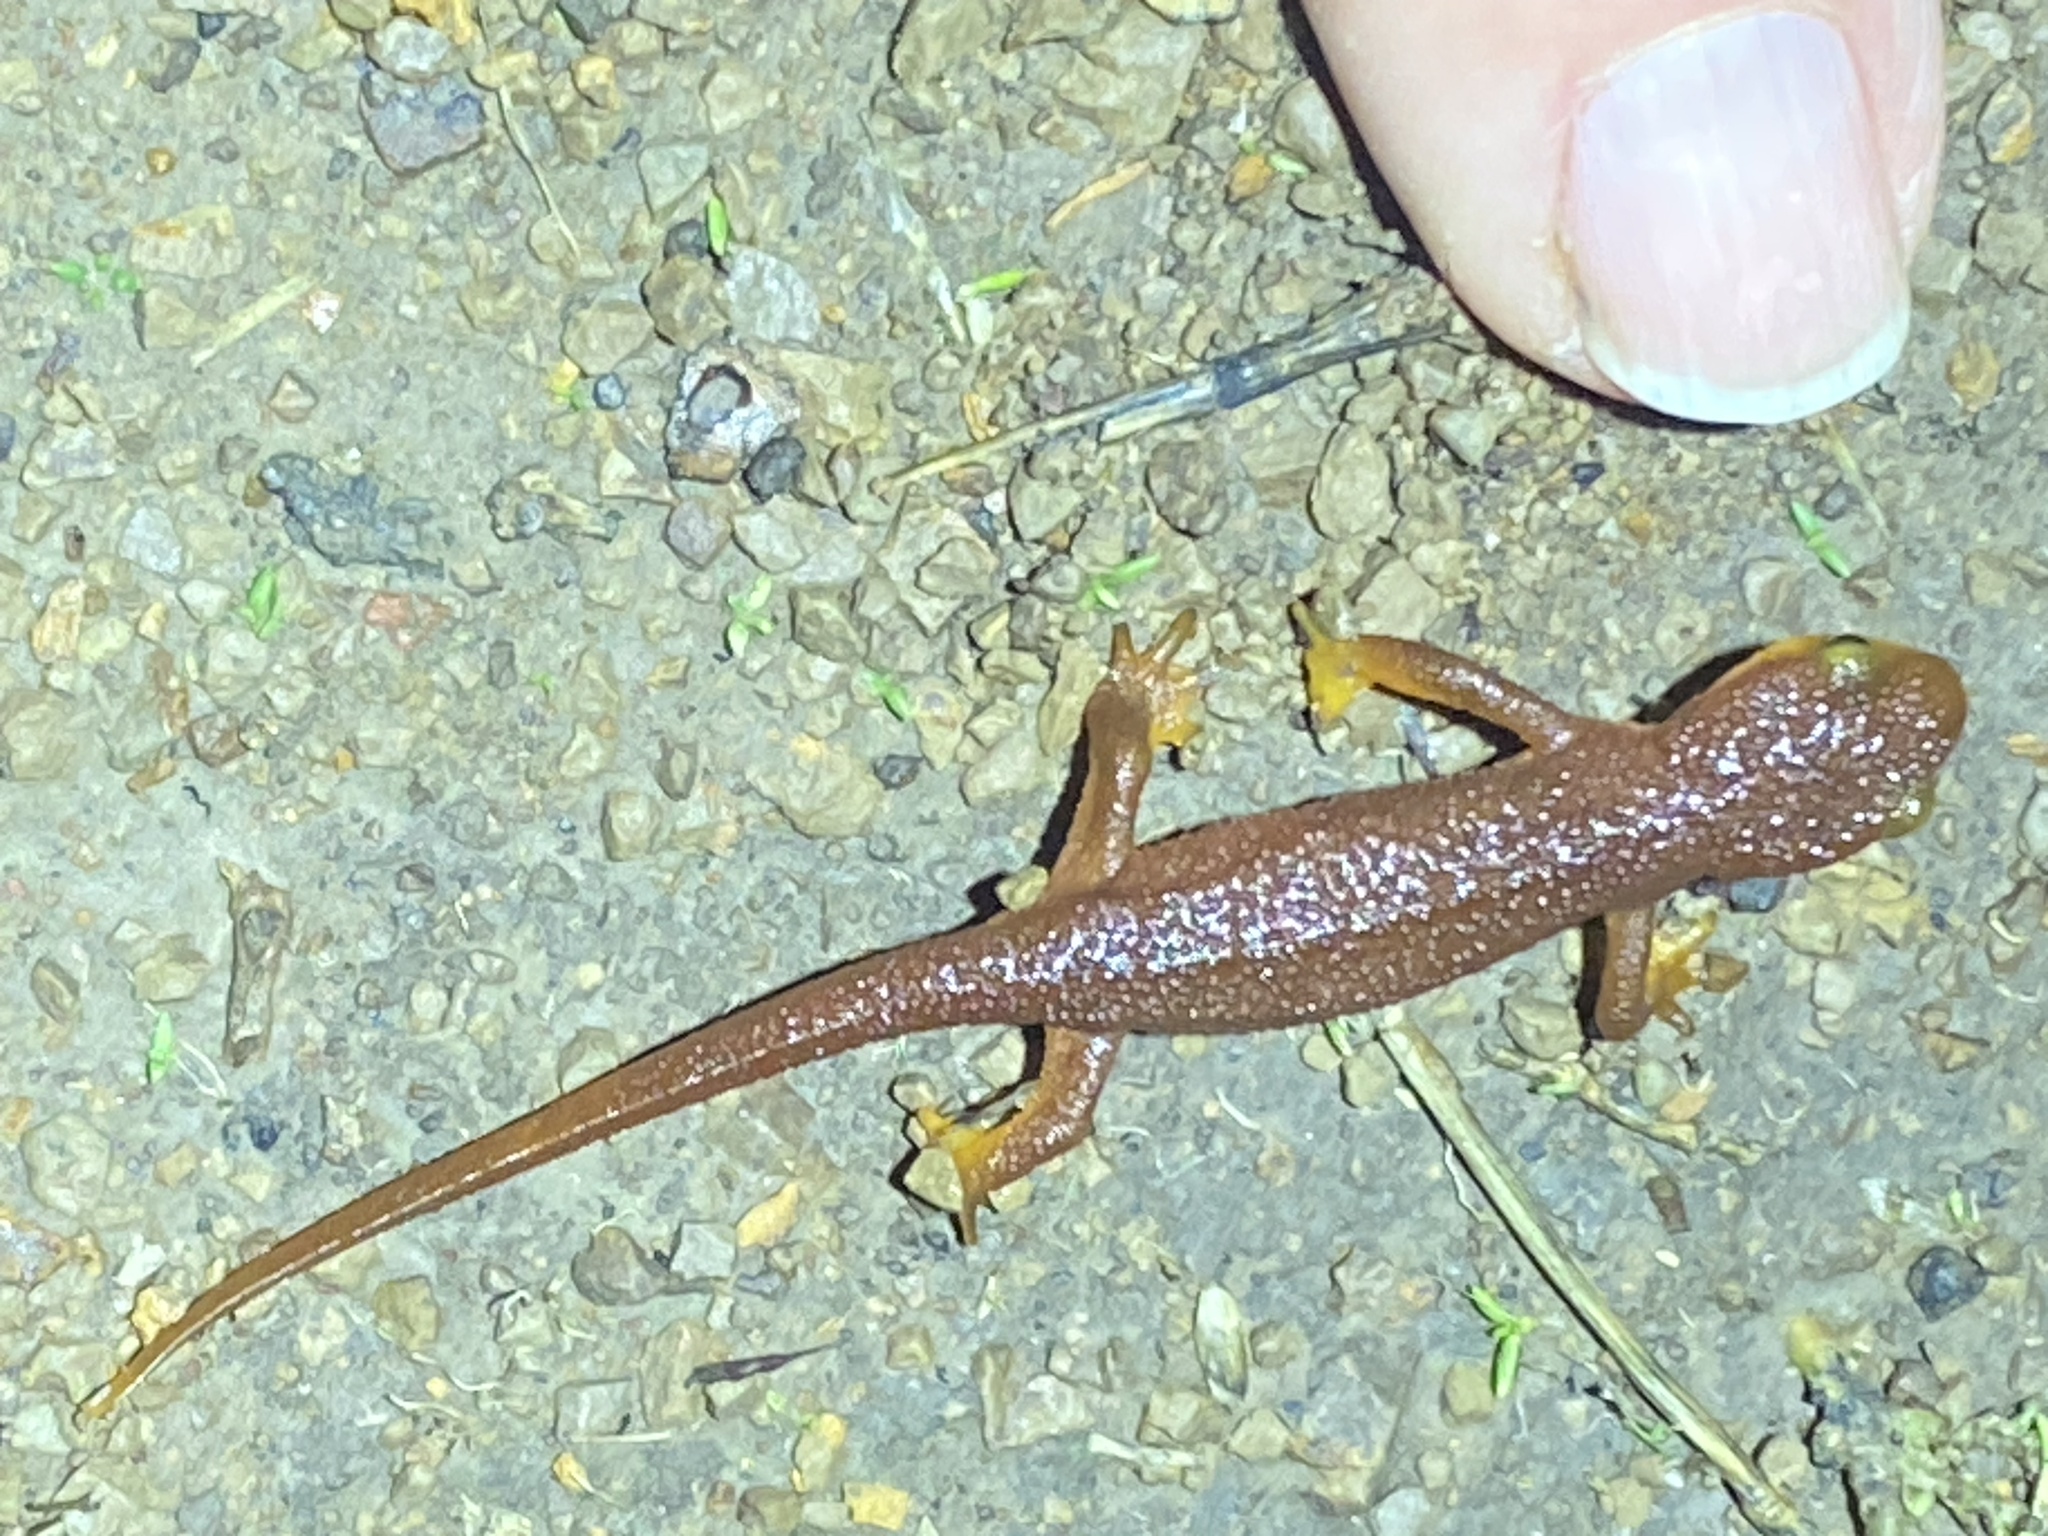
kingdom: Animalia
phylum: Chordata
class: Amphibia
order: Caudata
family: Salamandridae
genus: Taricha
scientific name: Taricha torosa
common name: California newt
